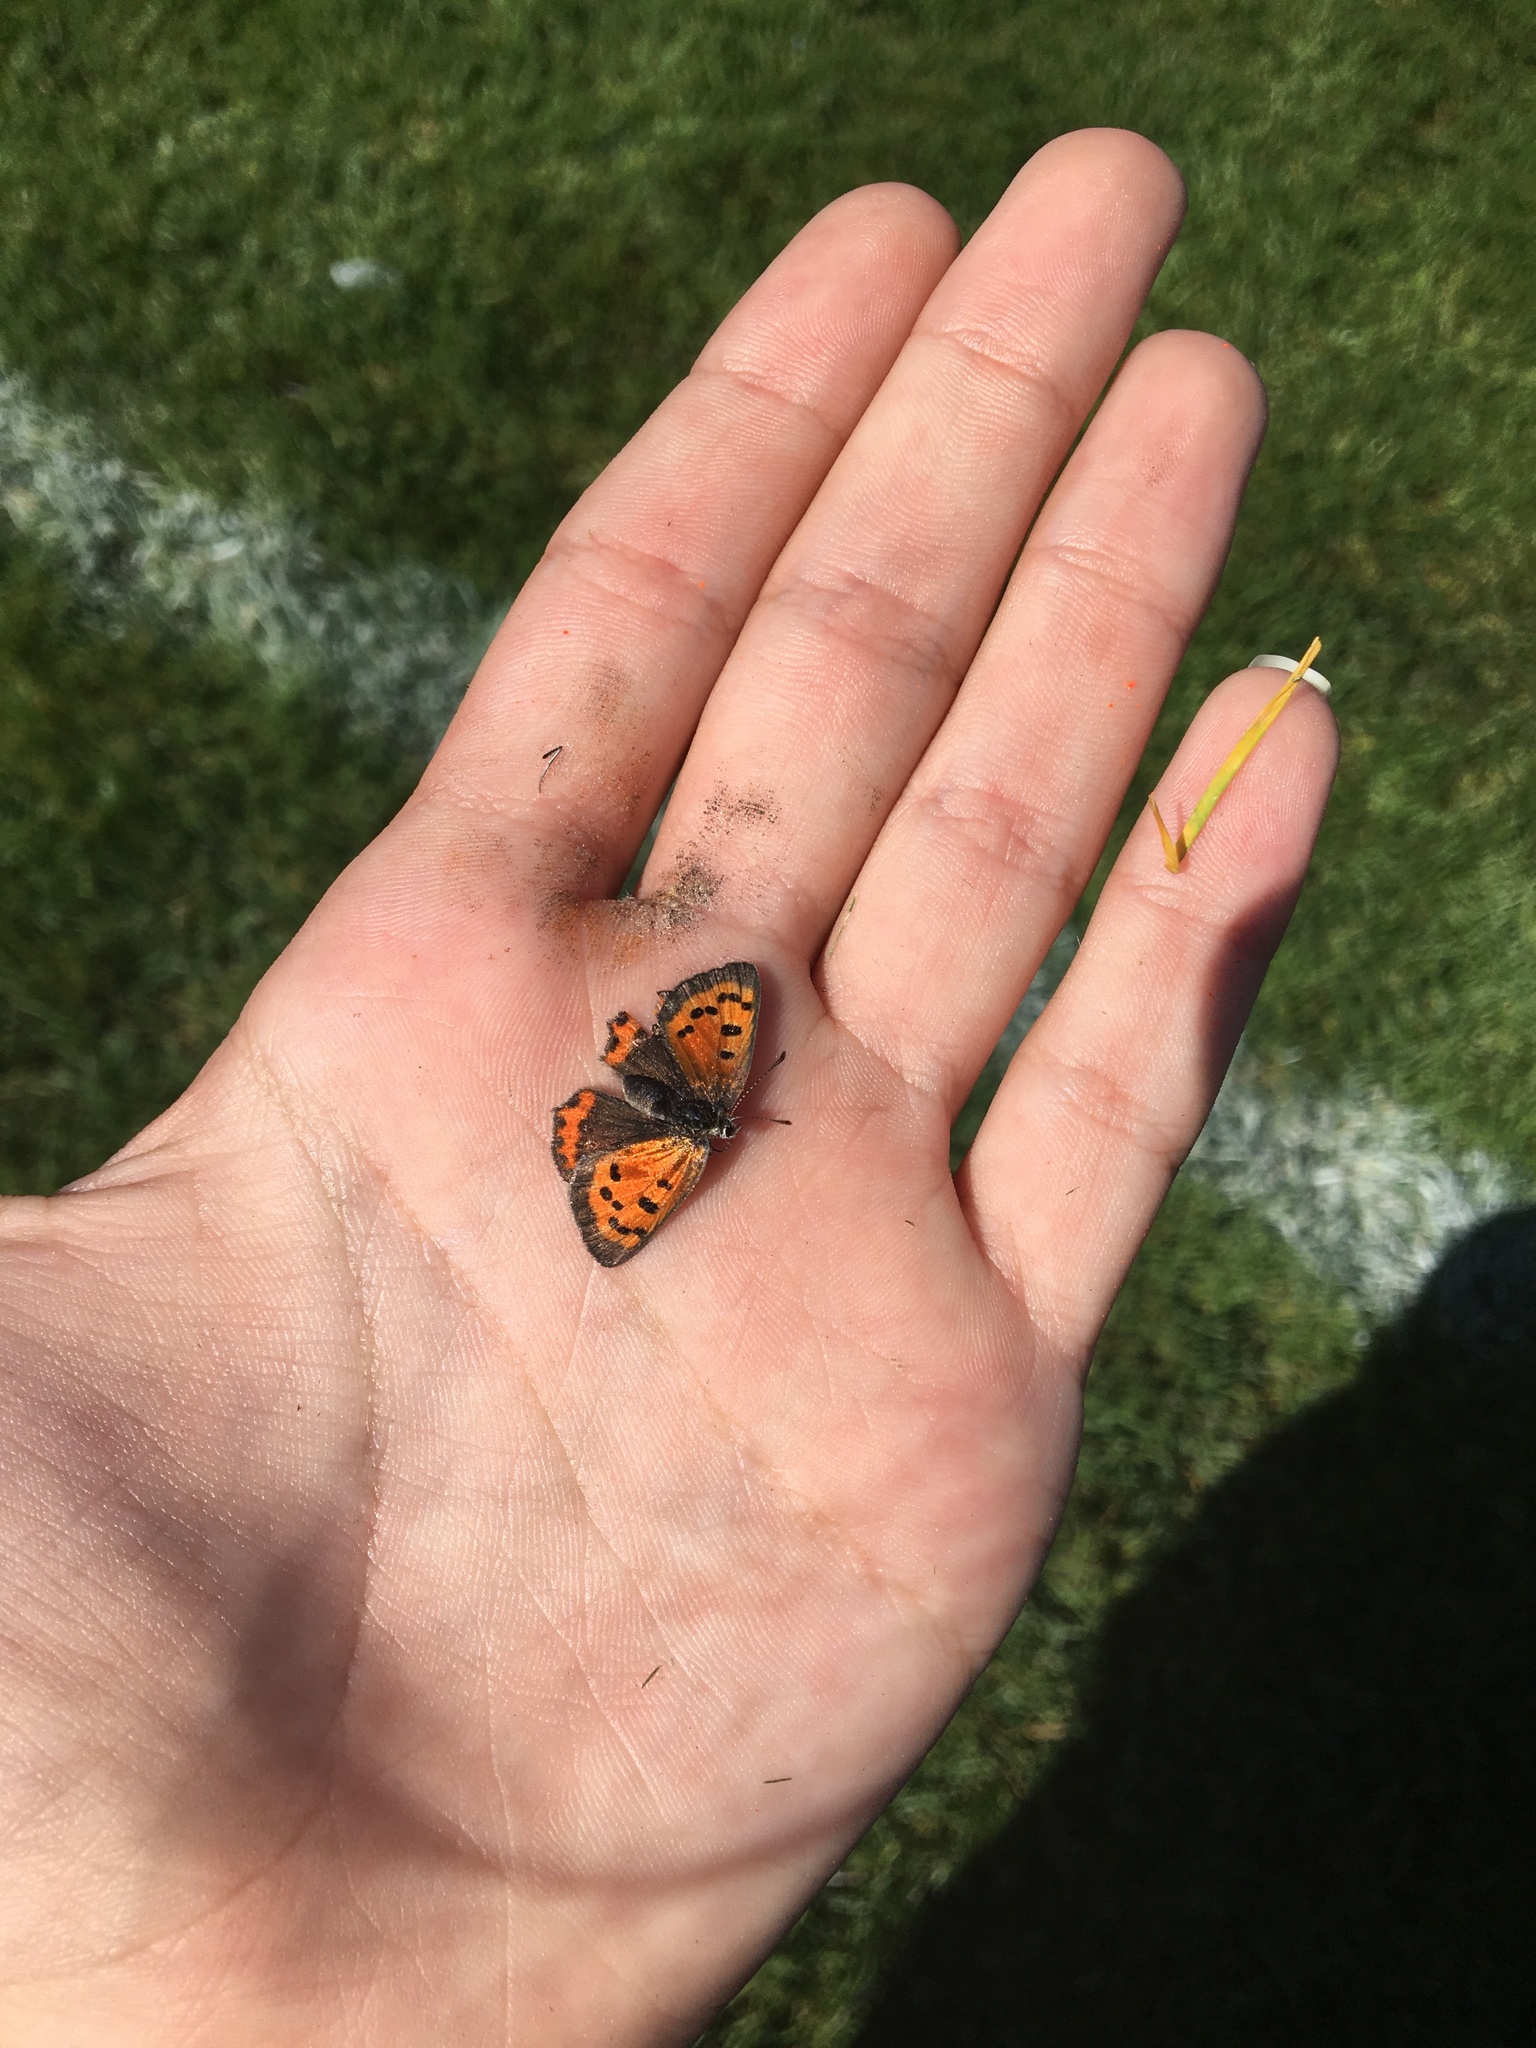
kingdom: Animalia
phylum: Arthropoda
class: Insecta
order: Lepidoptera
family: Lycaenidae
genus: Lycaena
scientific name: Lycaena hypophlaeas
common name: American copper
